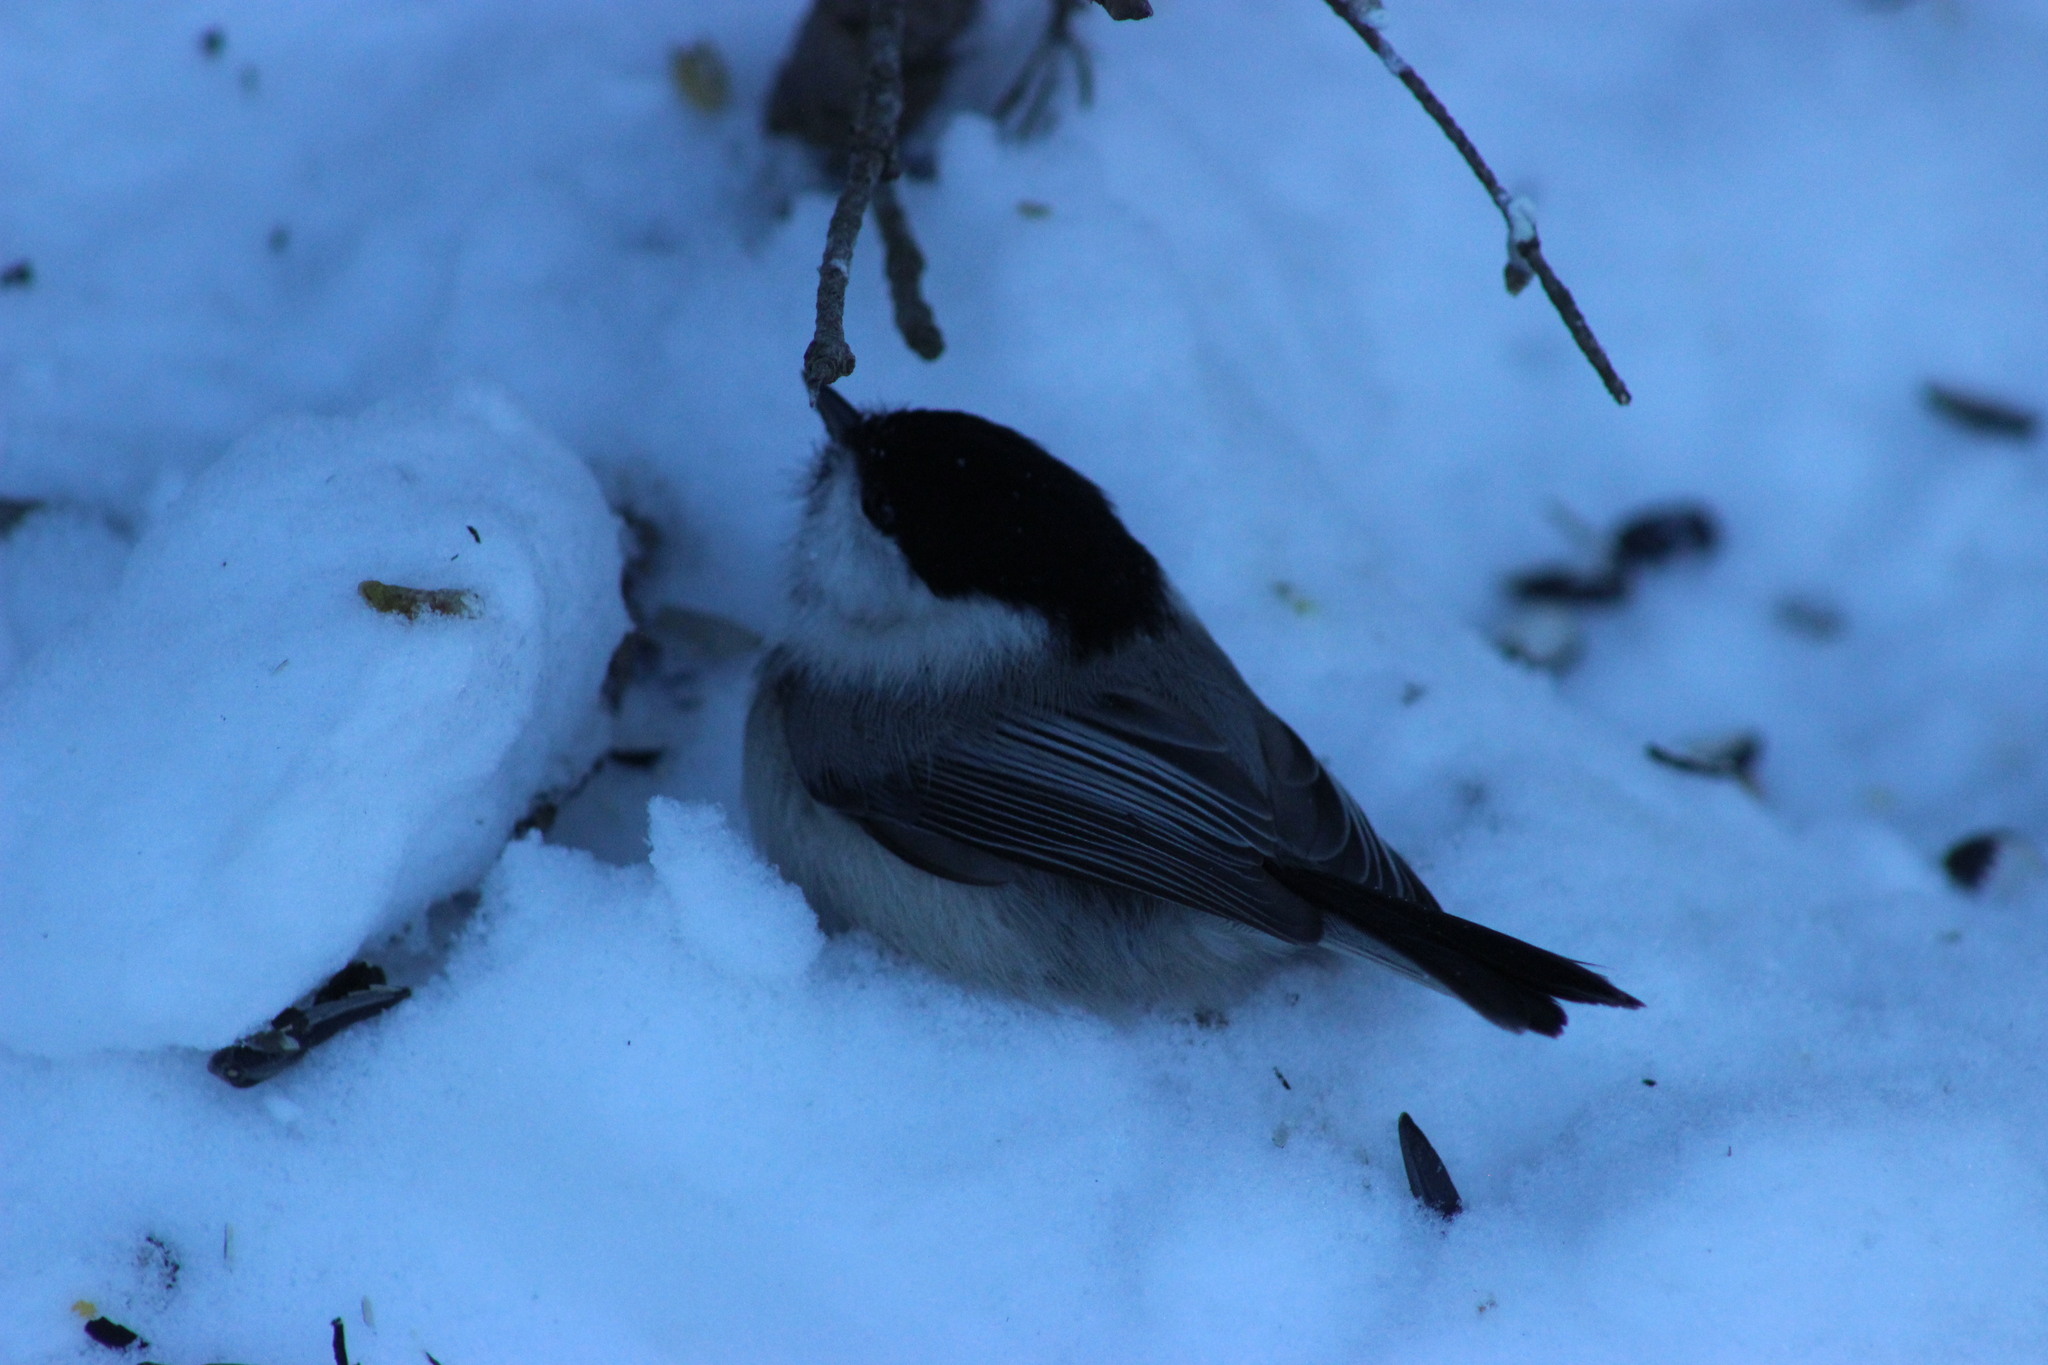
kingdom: Animalia
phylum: Chordata
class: Aves
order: Passeriformes
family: Paridae
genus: Poecile
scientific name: Poecile montanus
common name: Willow tit
